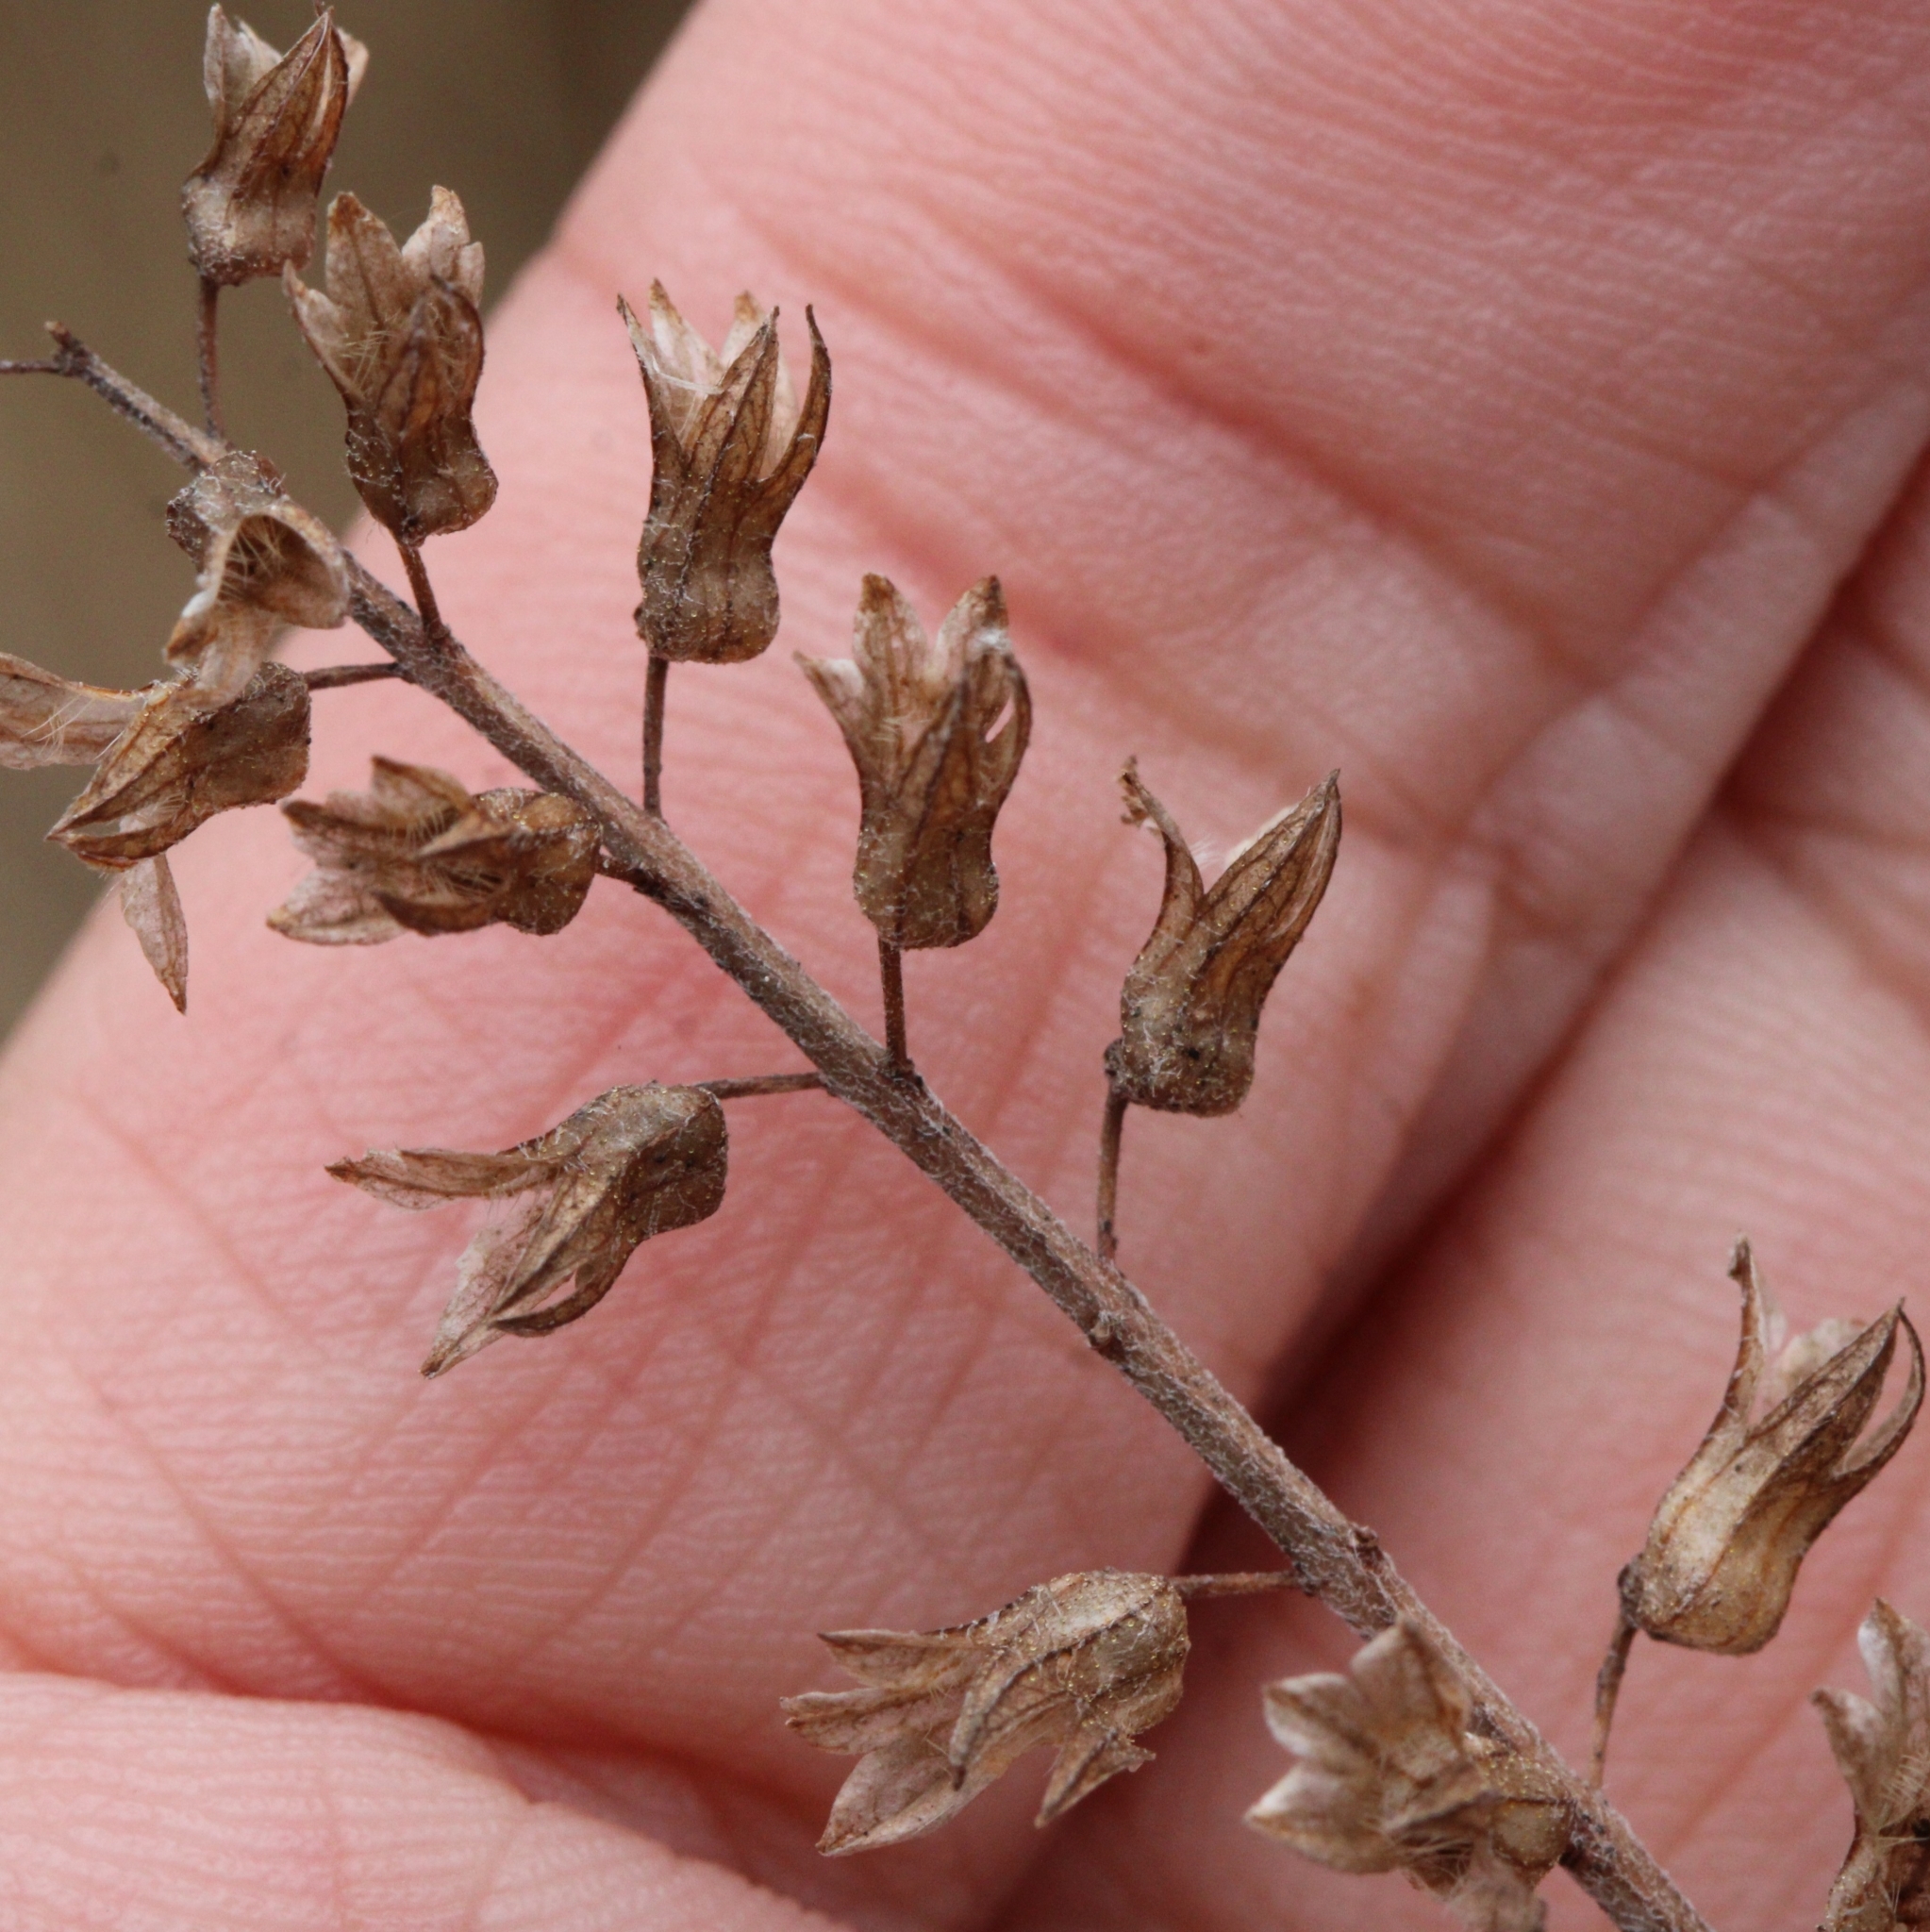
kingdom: Plantae
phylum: Tracheophyta
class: Magnoliopsida
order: Lamiales
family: Lamiaceae
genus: Perilla
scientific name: Perilla frutescens
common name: Perilla
